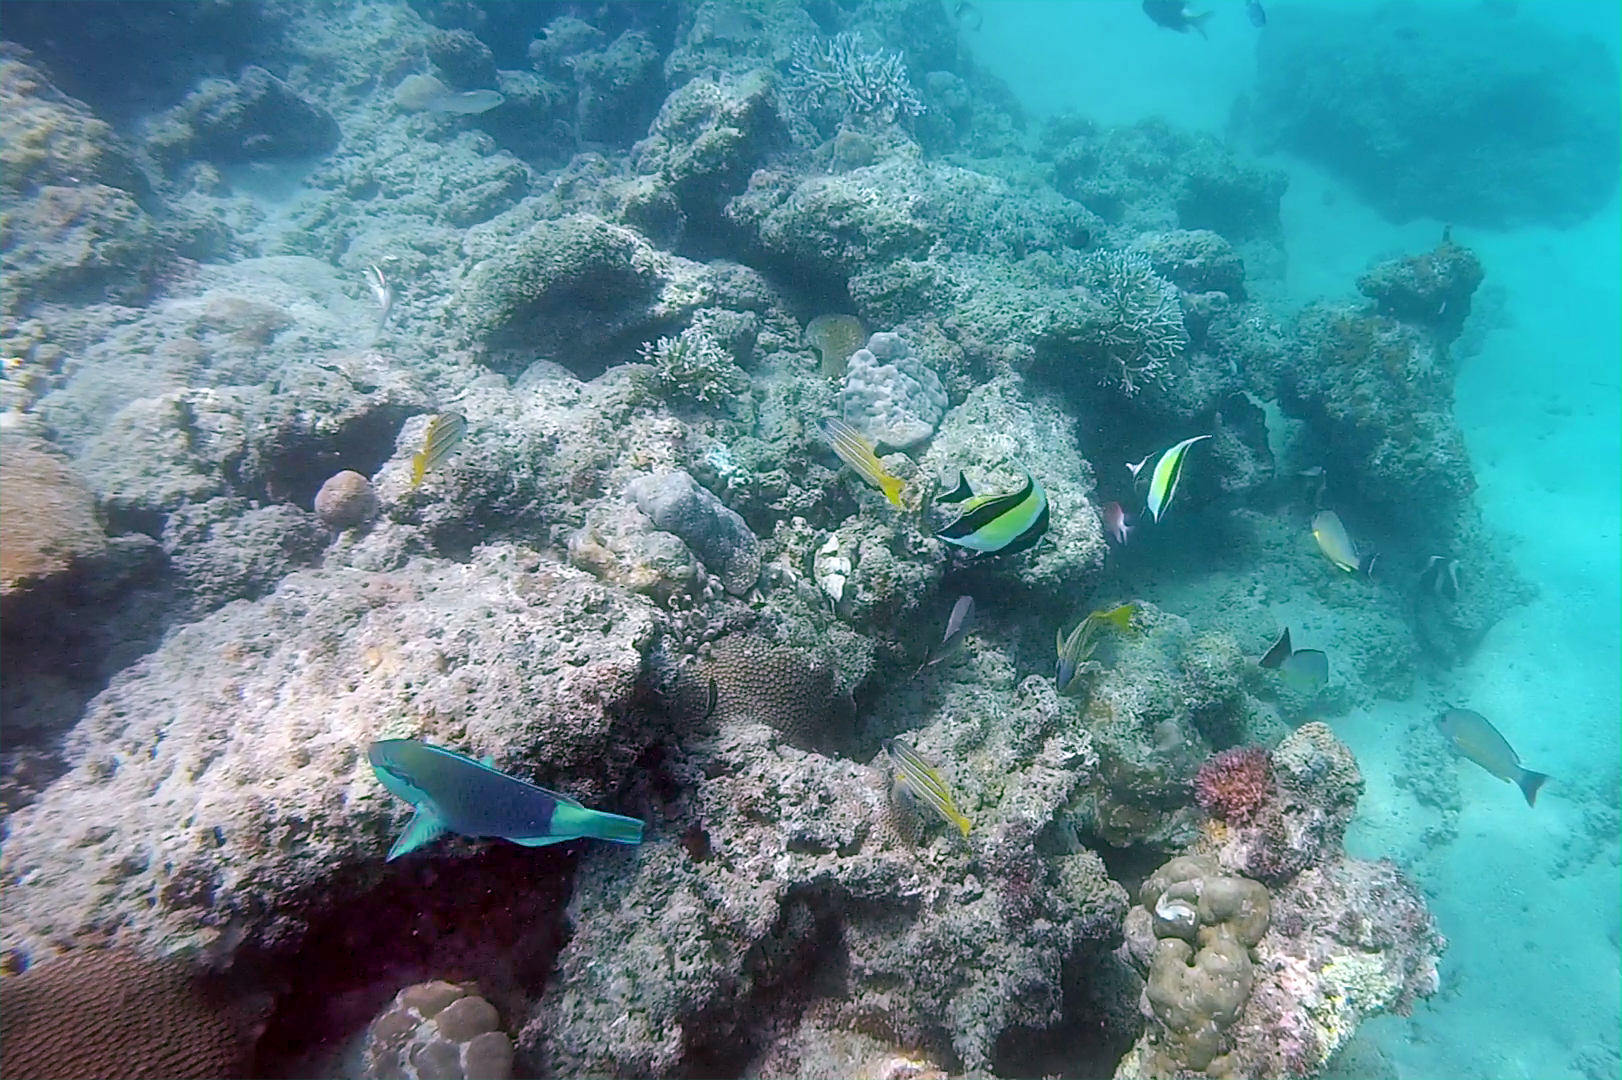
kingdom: Animalia
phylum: Chordata
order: Perciformes
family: Scaridae
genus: Chlorurus
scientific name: Chlorurus sordidus
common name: Bullethead parrotfish
